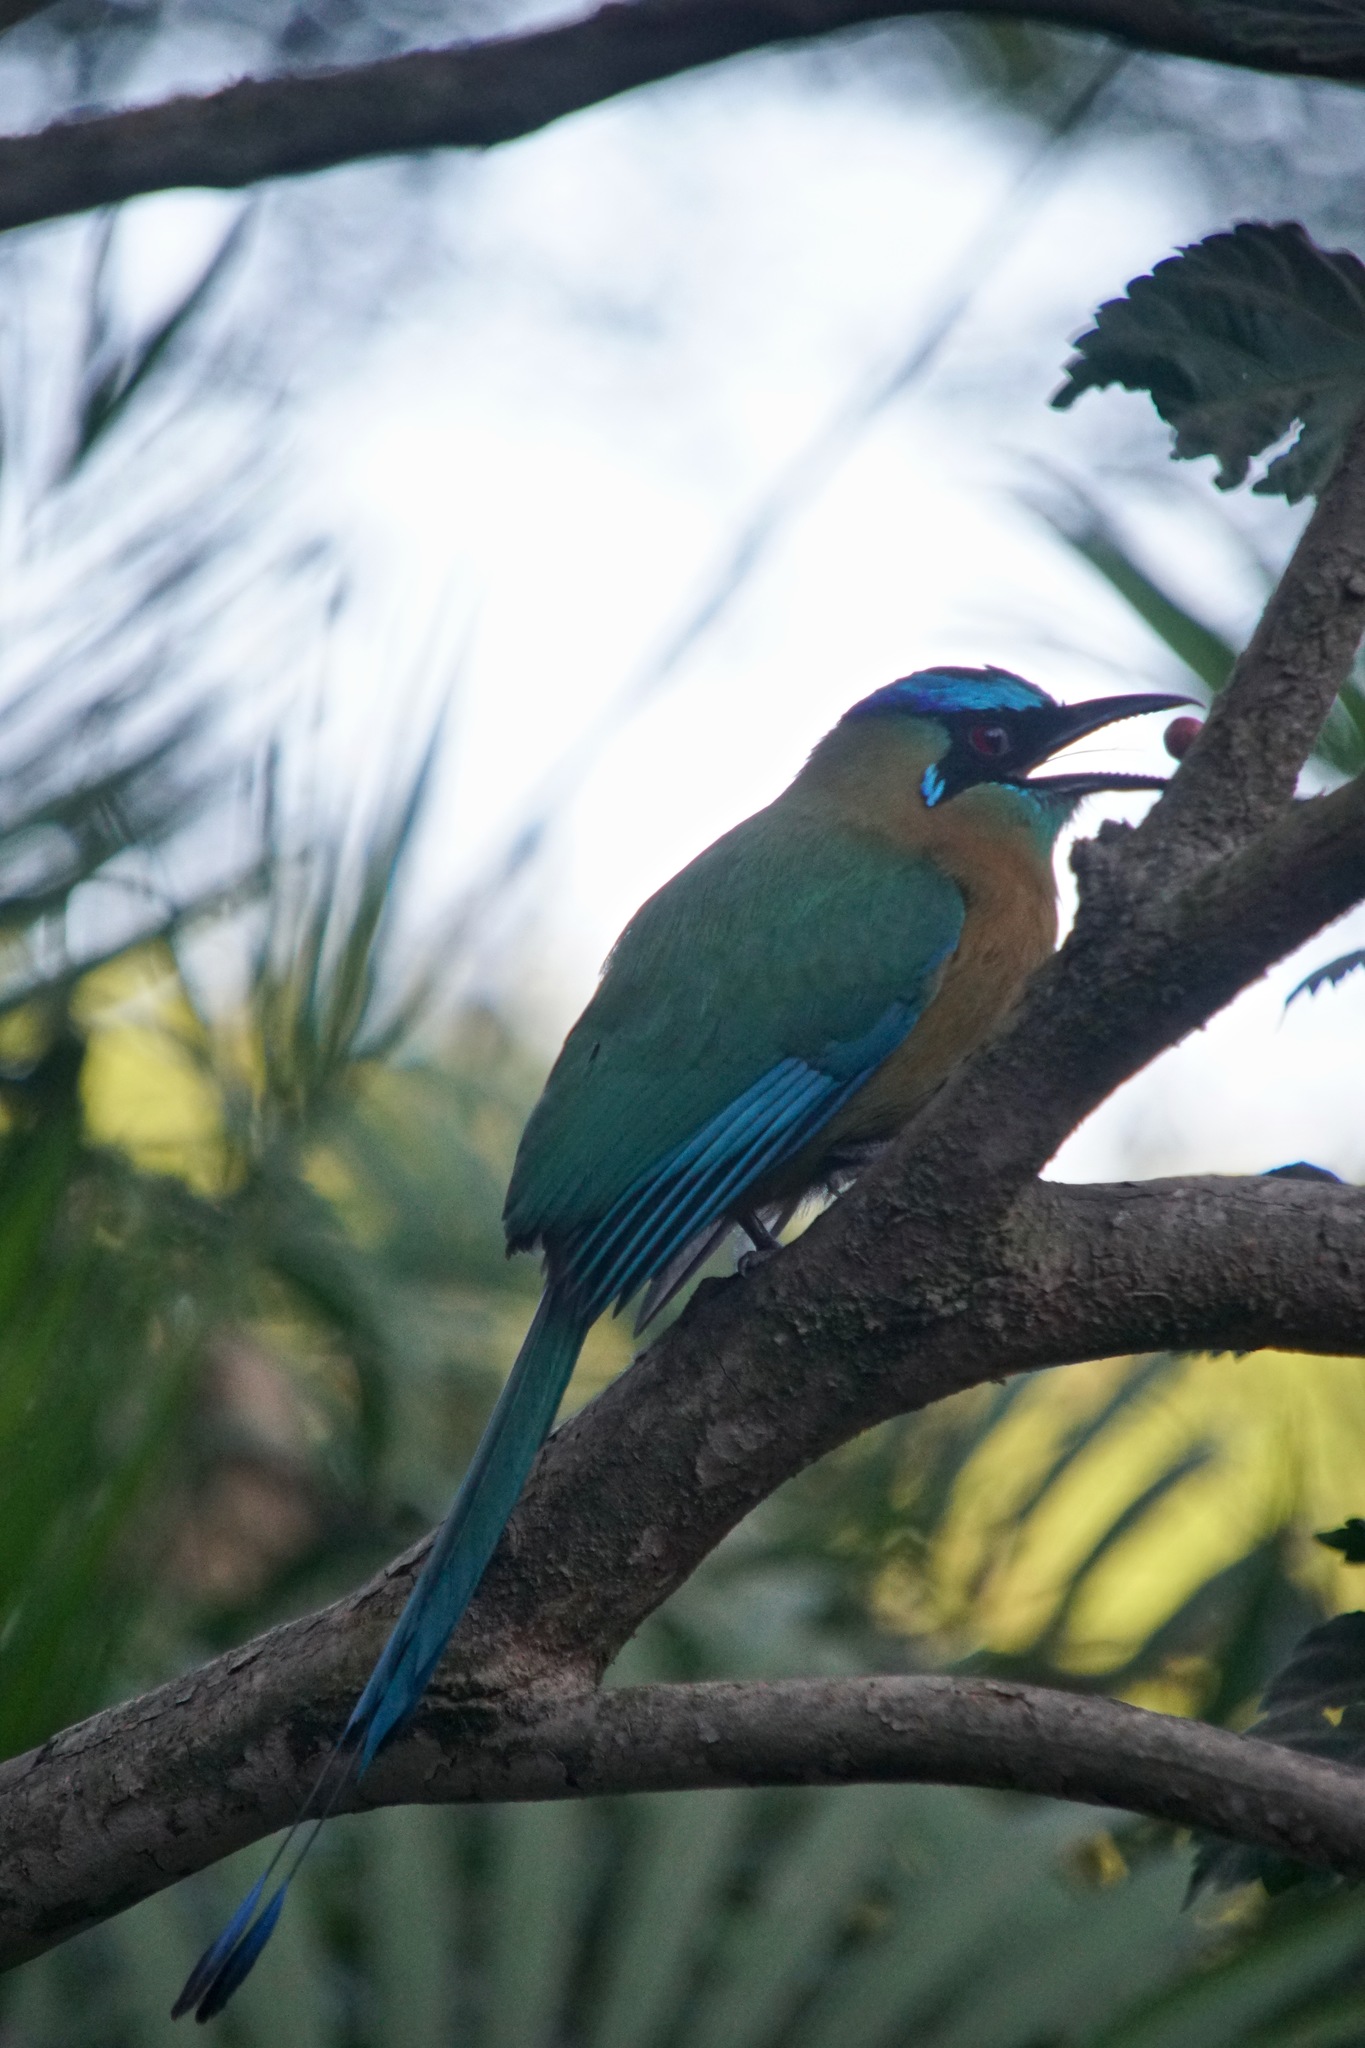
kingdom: Animalia
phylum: Chordata
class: Aves
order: Coraciiformes
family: Momotidae
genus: Momotus
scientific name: Momotus lessonii
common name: Lesson's motmot
